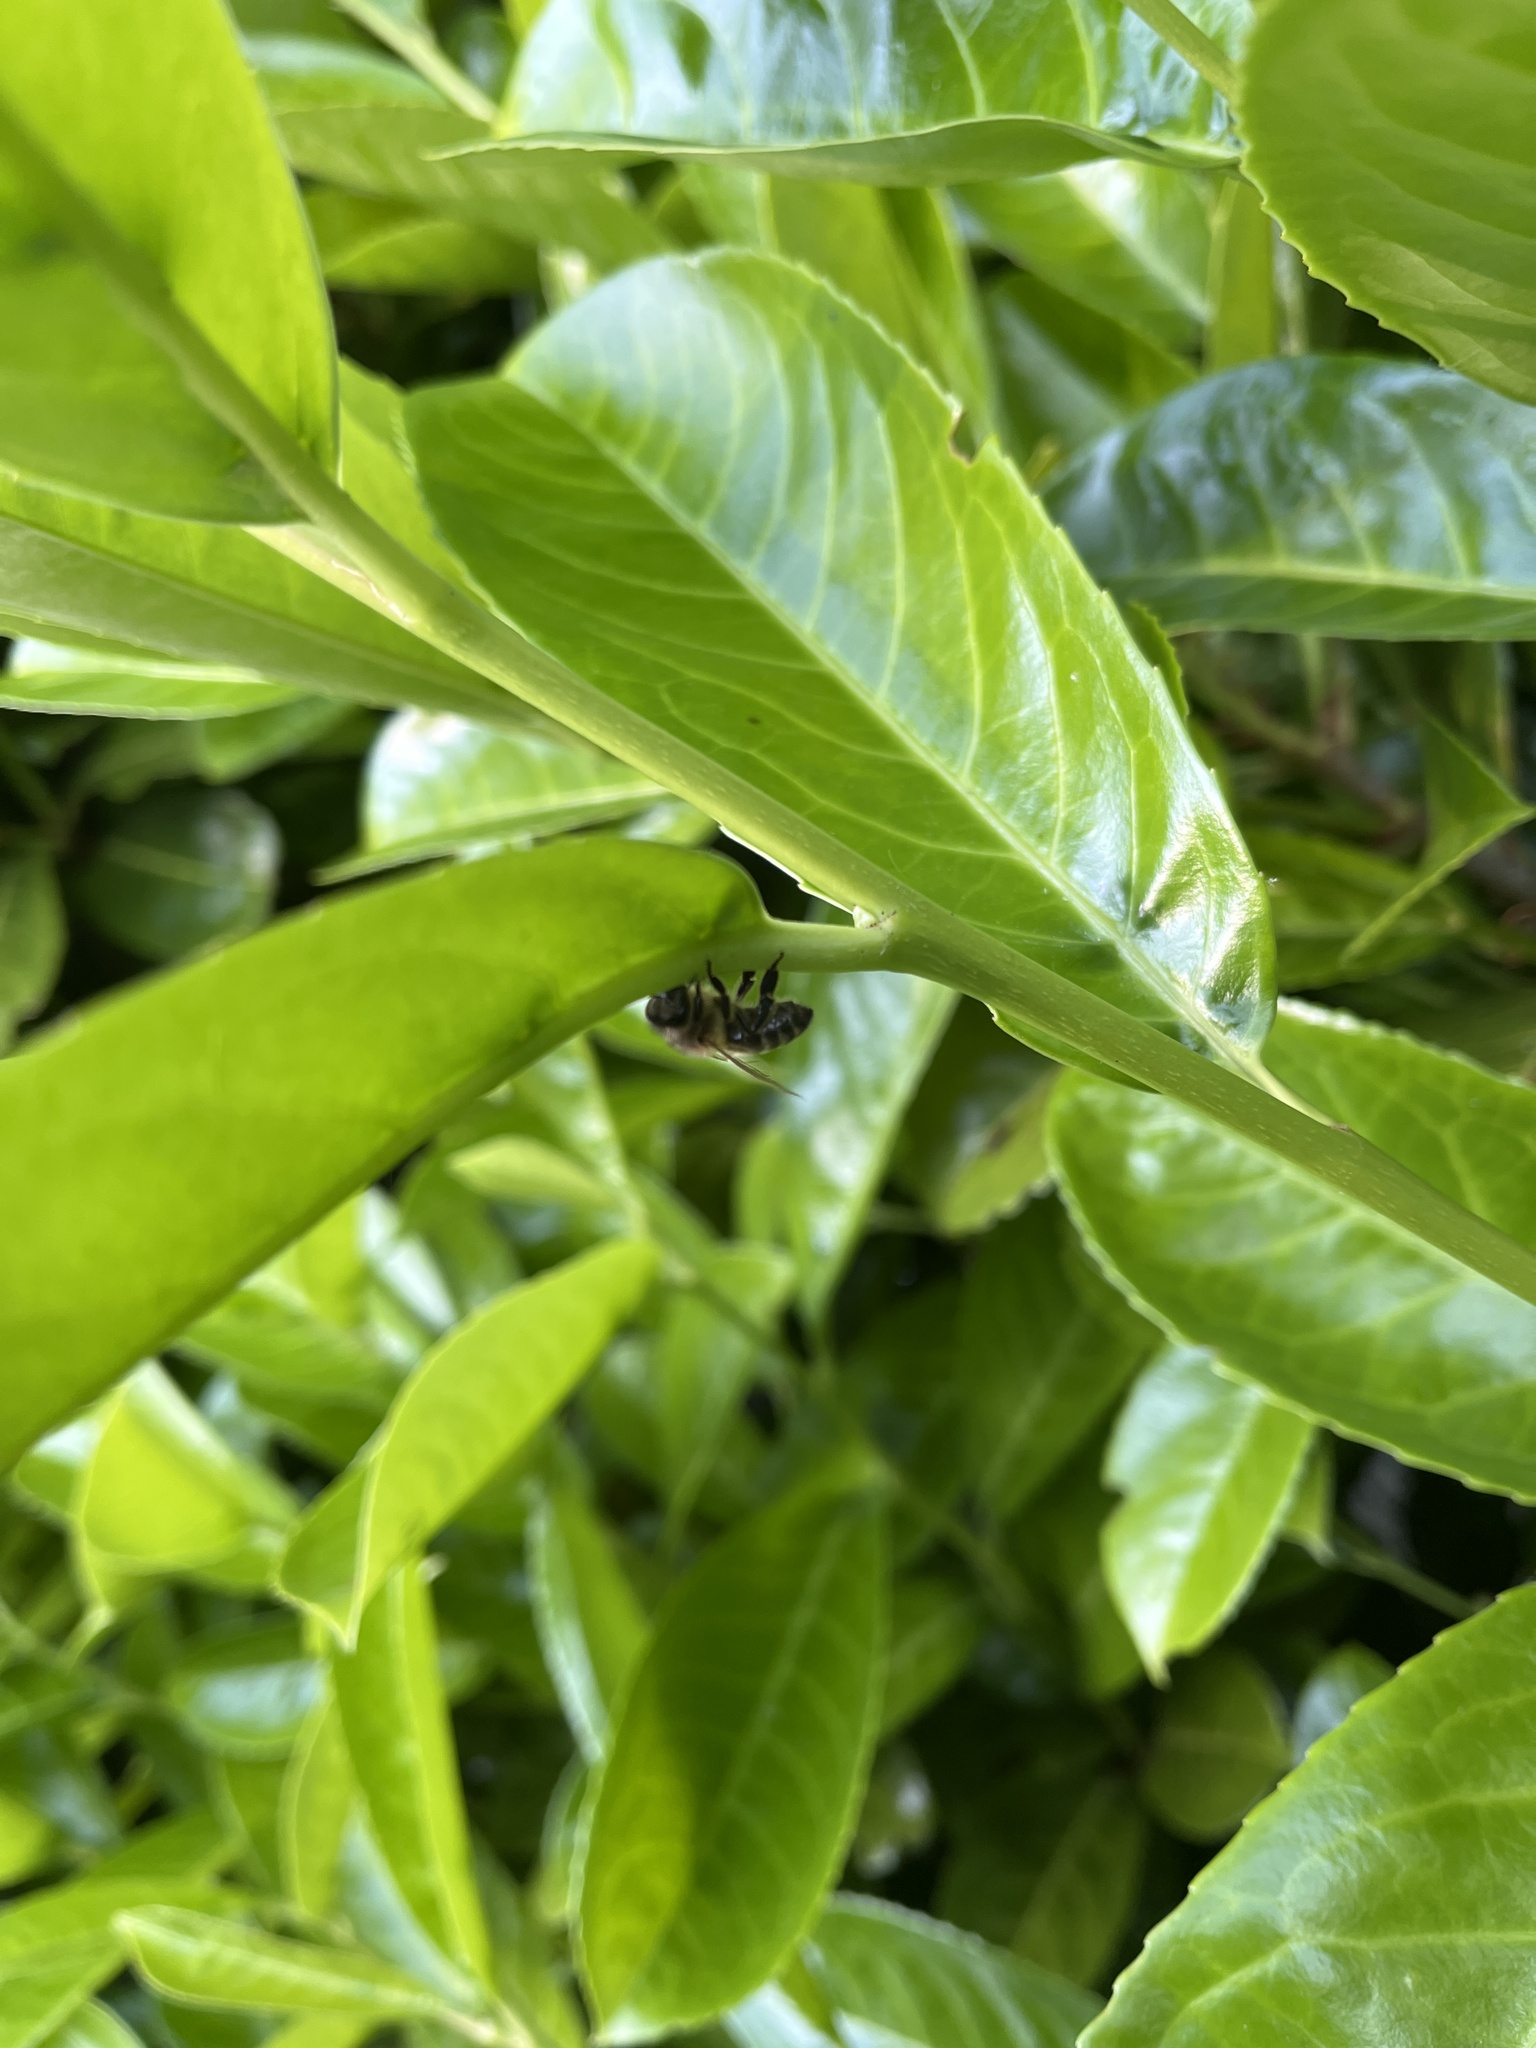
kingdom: Animalia
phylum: Arthropoda
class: Insecta
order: Hymenoptera
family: Apidae
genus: Apis
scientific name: Apis mellifera
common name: Honey bee
